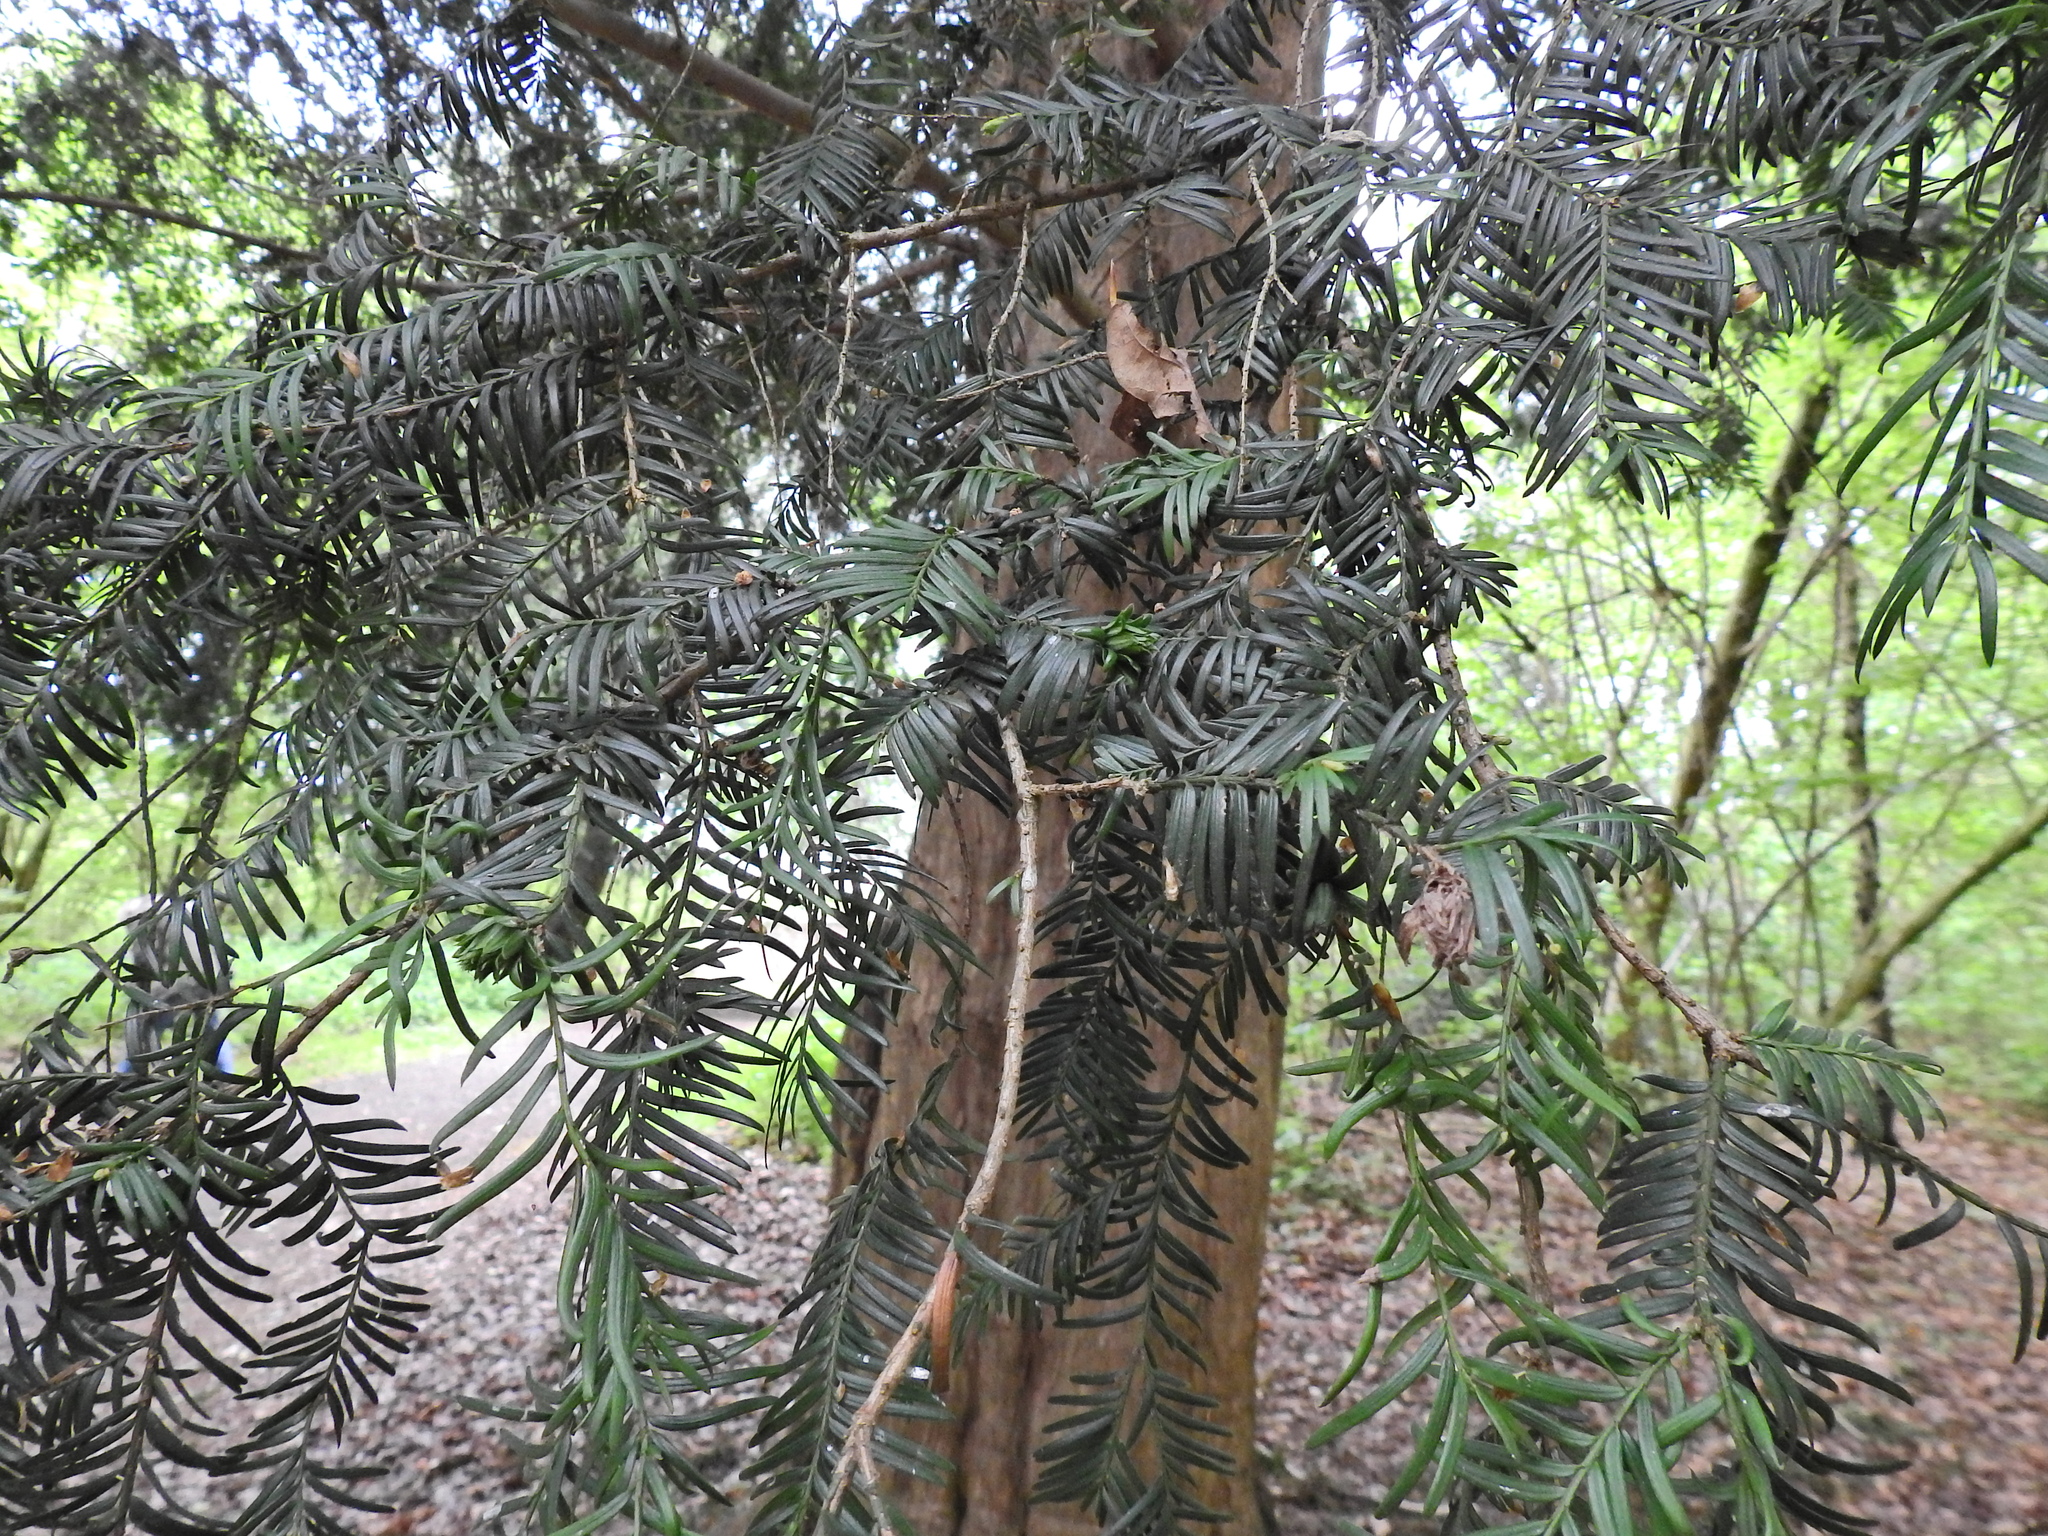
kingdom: Plantae
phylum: Tracheophyta
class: Pinopsida
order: Pinales
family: Taxaceae
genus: Taxus
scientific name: Taxus baccata
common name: Yew
